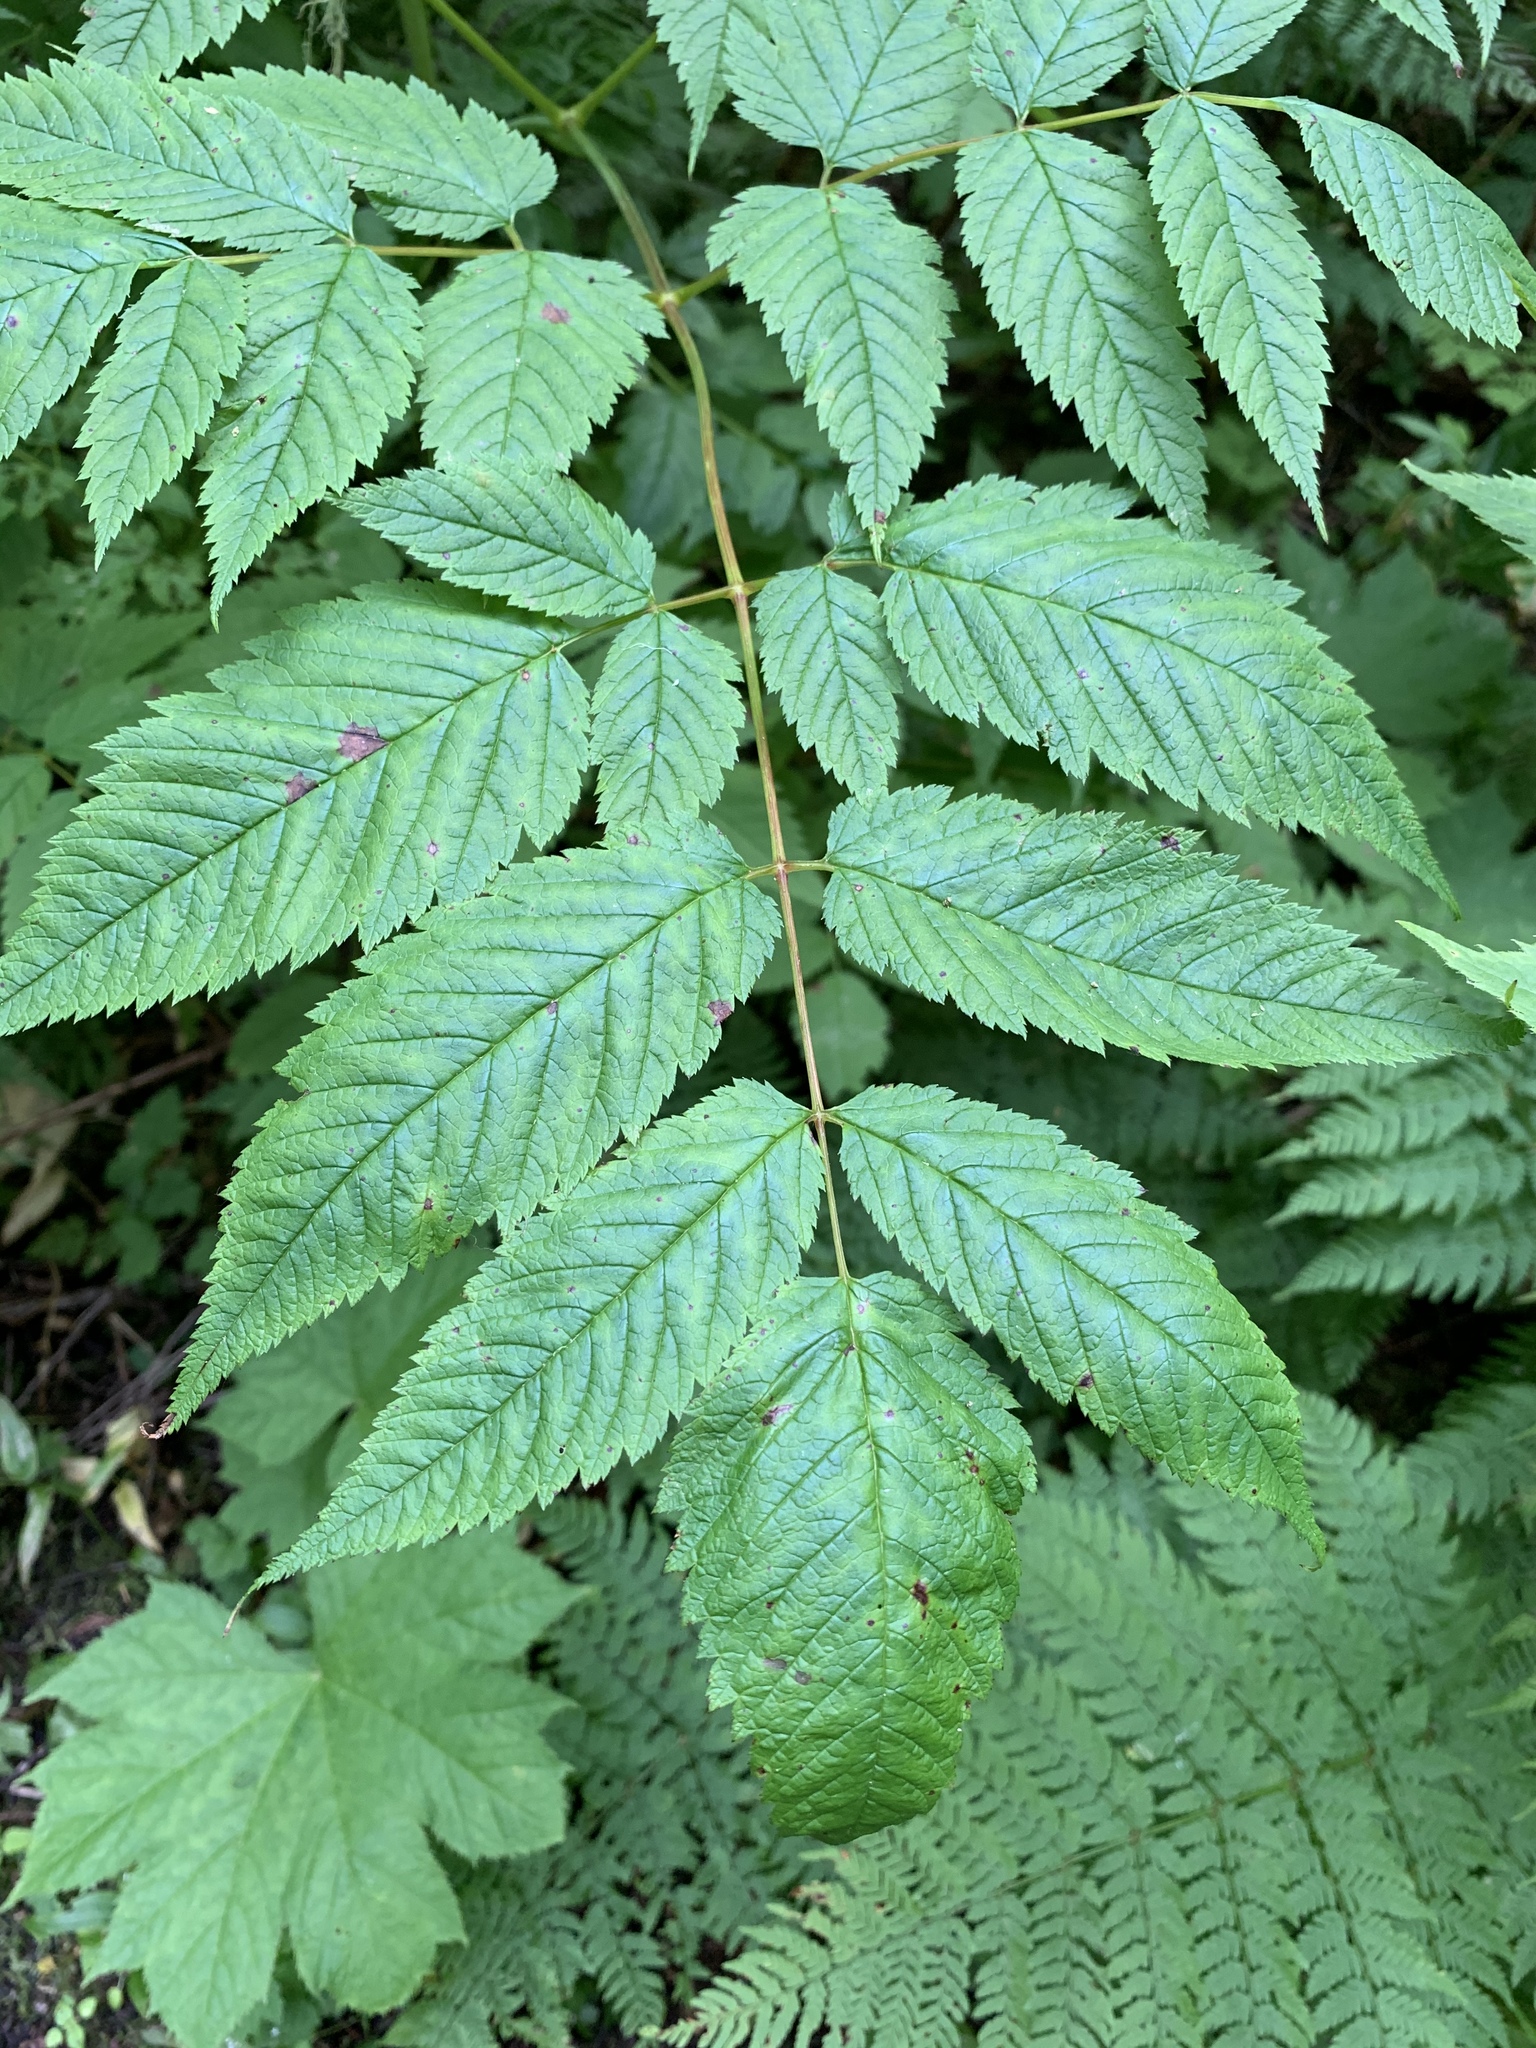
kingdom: Plantae
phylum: Tracheophyta
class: Magnoliopsida
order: Rosales
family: Rosaceae
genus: Aruncus
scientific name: Aruncus dioicus
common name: Buck's-beard
